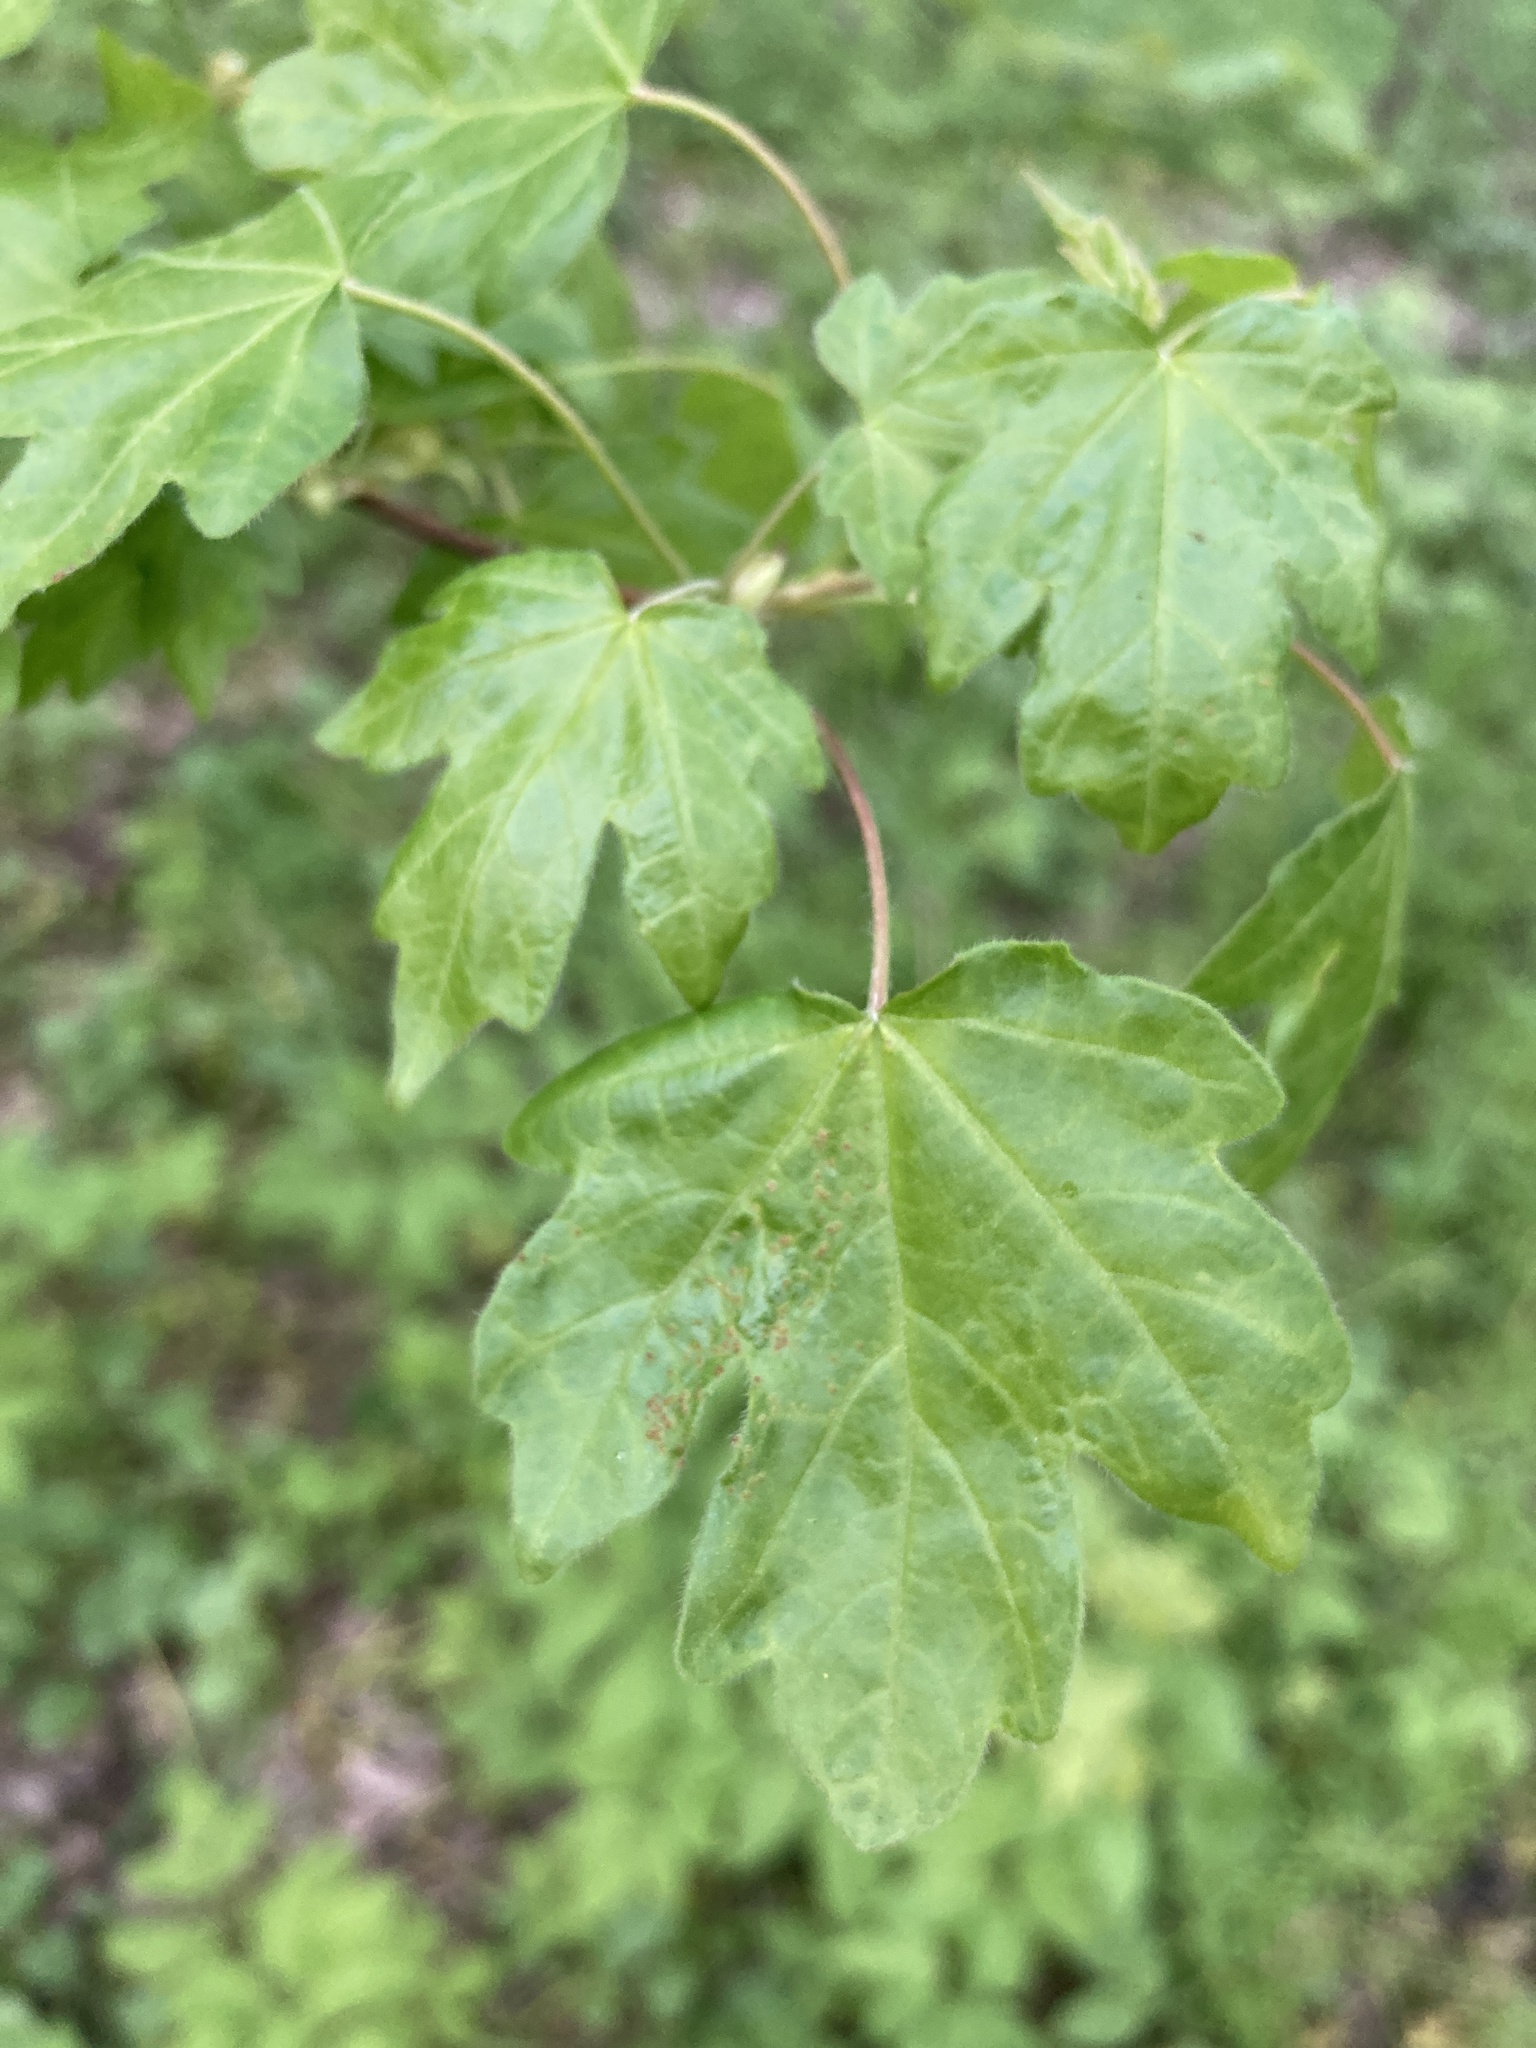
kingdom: Plantae
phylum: Tracheophyta
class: Magnoliopsida
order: Sapindales
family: Sapindaceae
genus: Acer
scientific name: Acer campestre
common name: Field maple
